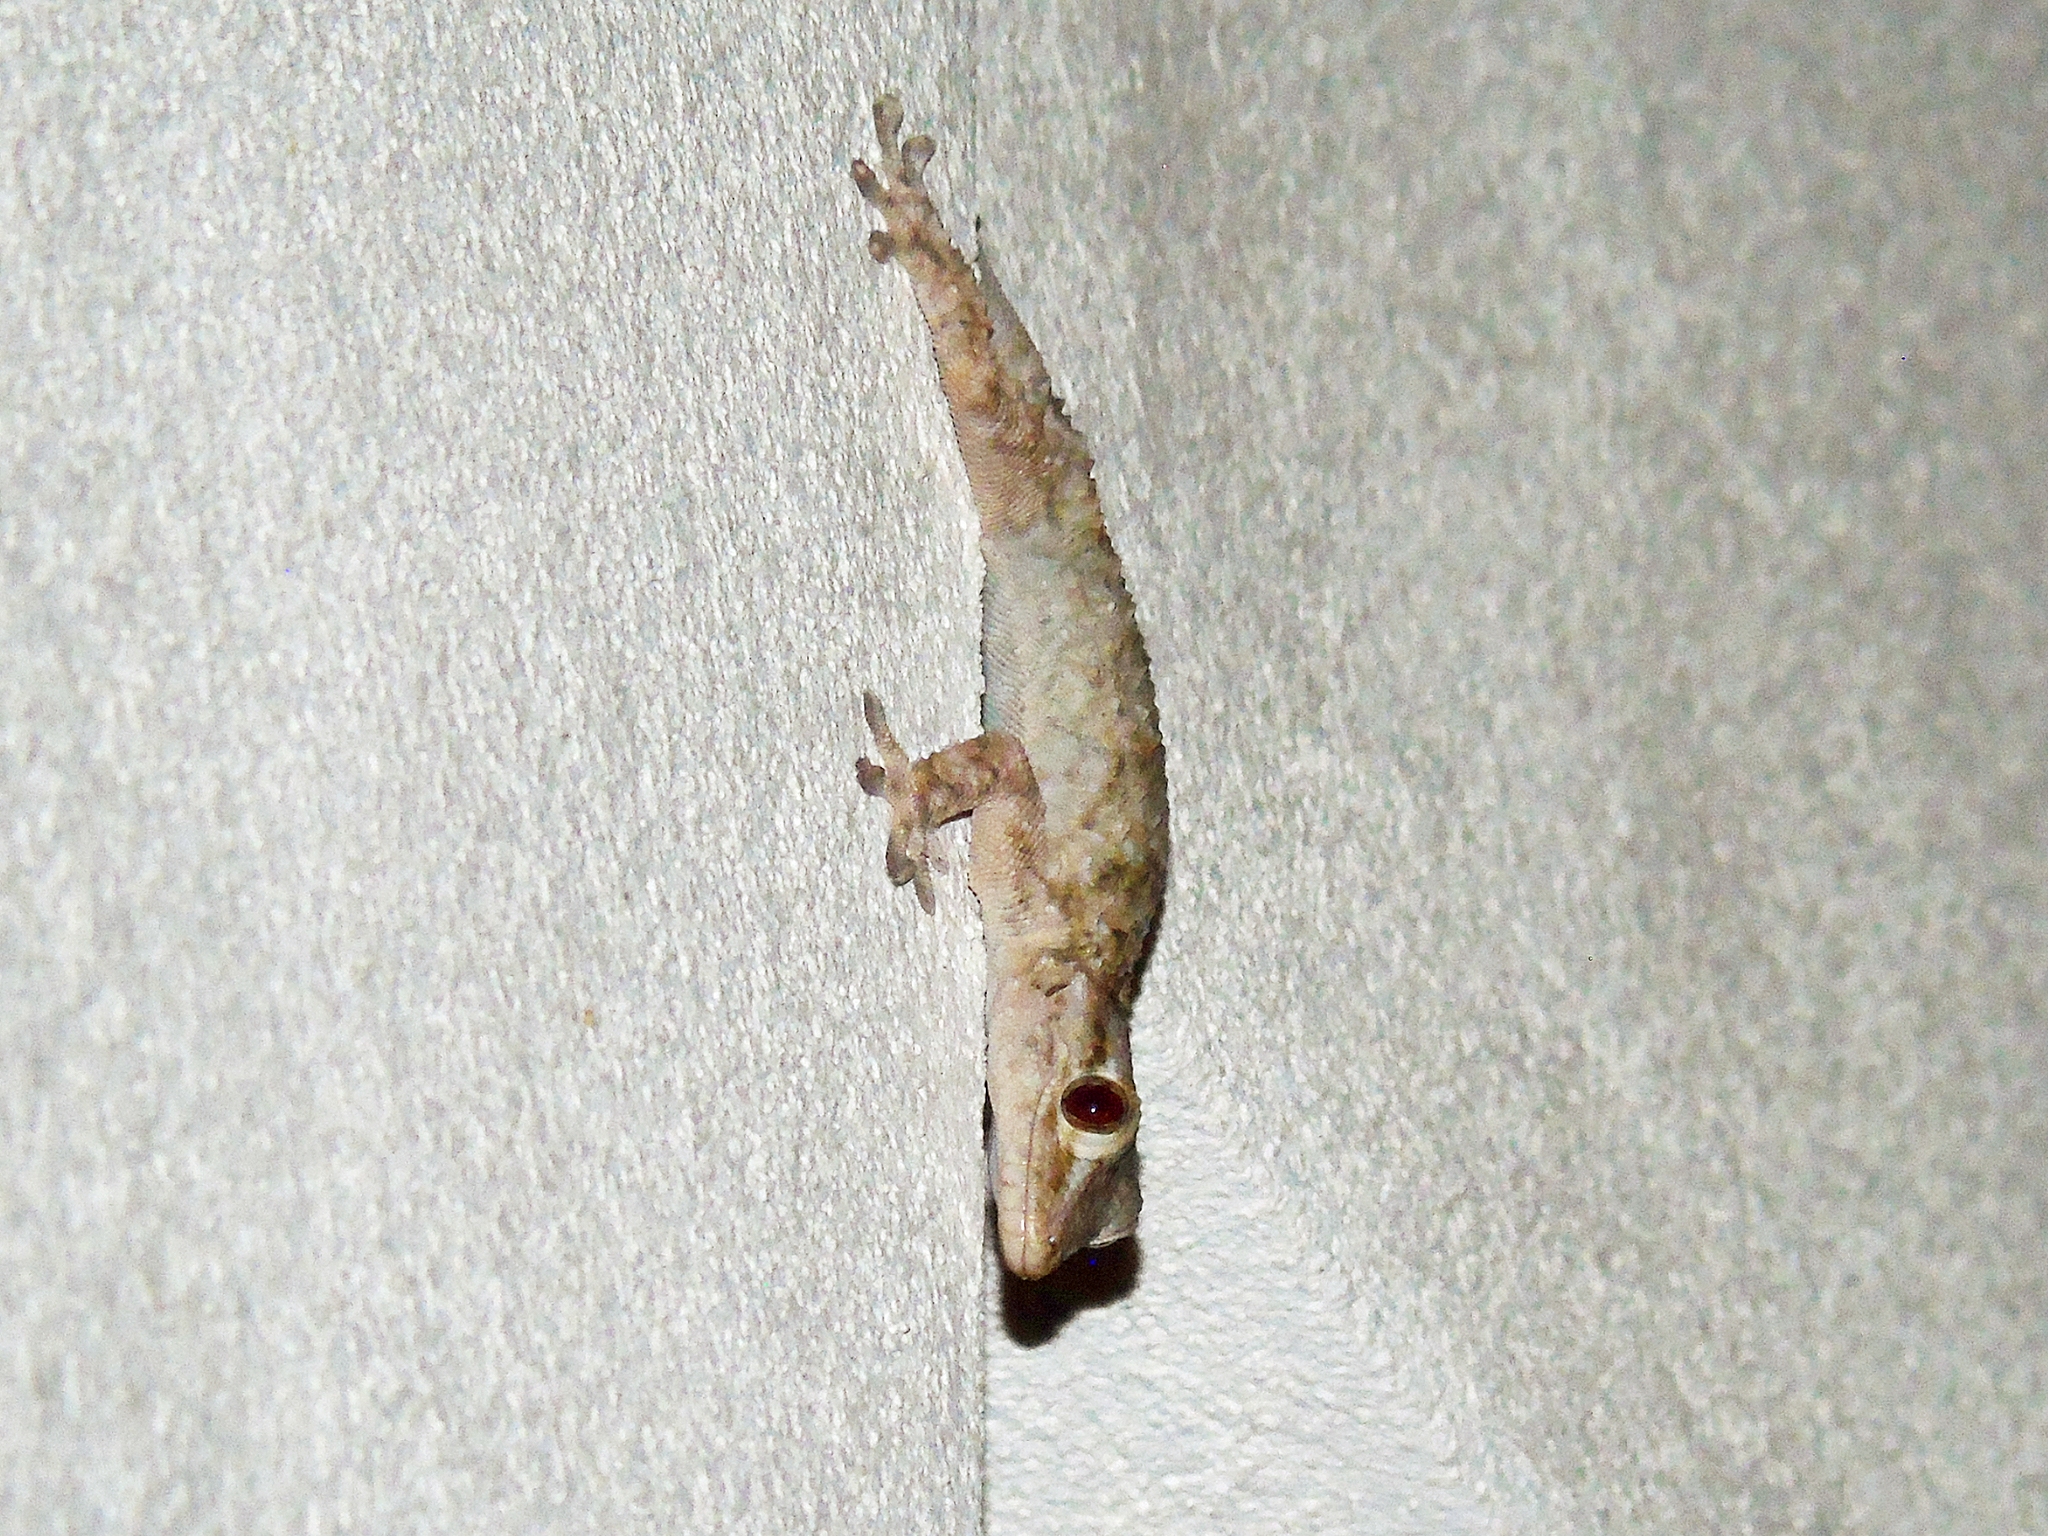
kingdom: Animalia
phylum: Chordata
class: Squamata
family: Phyllodactylidae
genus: Tarentola
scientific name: Tarentola mauritanica
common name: Moorish gecko
